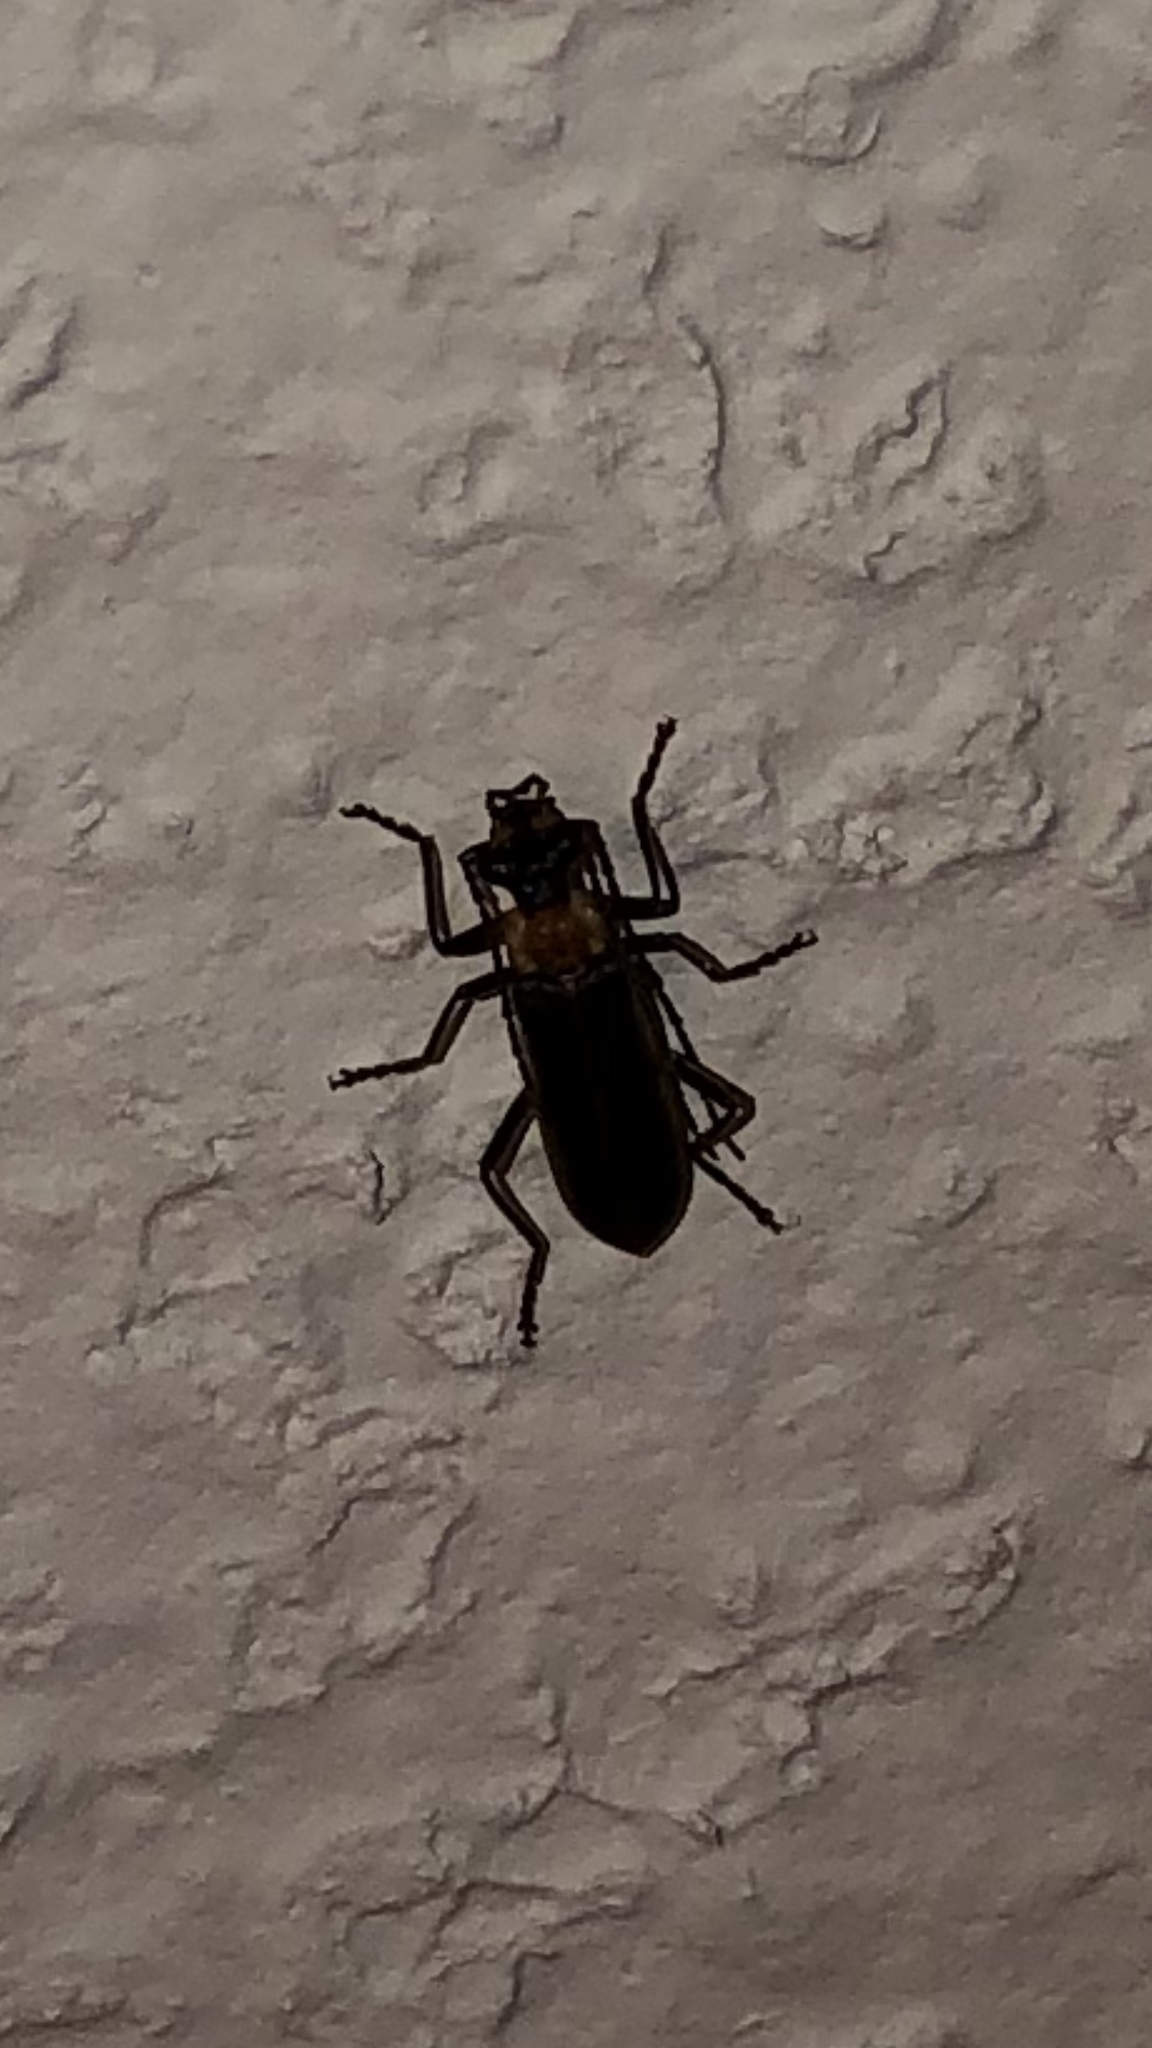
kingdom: Animalia
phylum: Arthropoda
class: Insecta
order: Coleoptera
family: Cantharidae
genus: Podabrus
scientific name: Podabrus flavicollis
